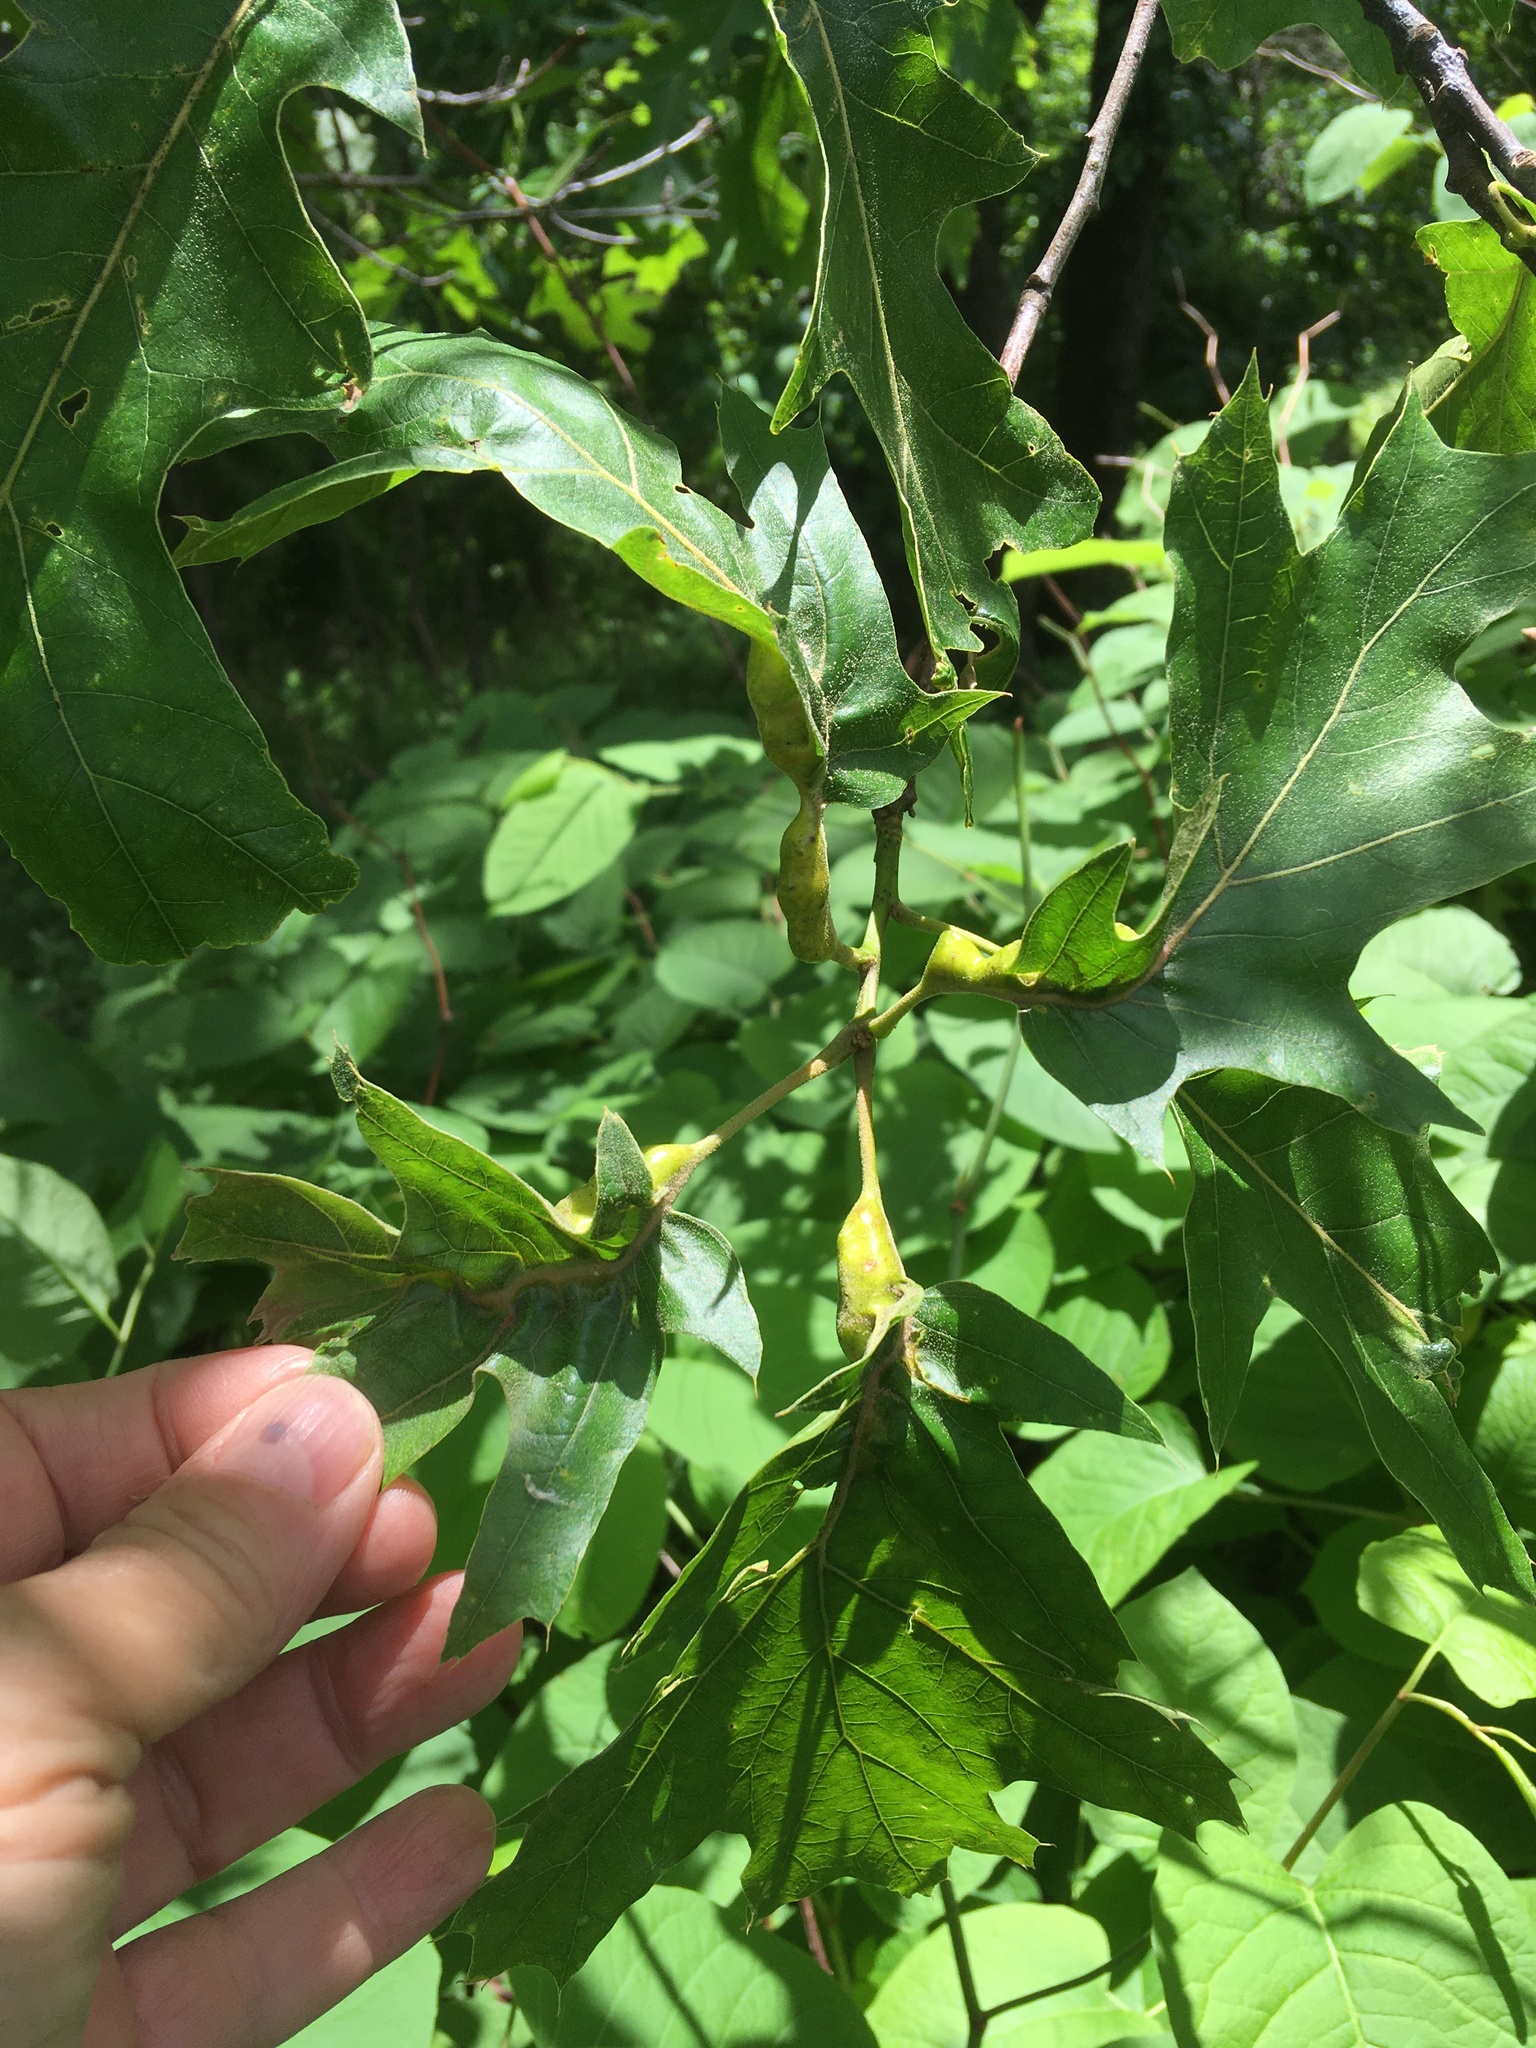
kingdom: Animalia
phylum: Arthropoda
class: Insecta
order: Hymenoptera
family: Cynipidae
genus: Melikaiella
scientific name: Melikaiella tumifica
